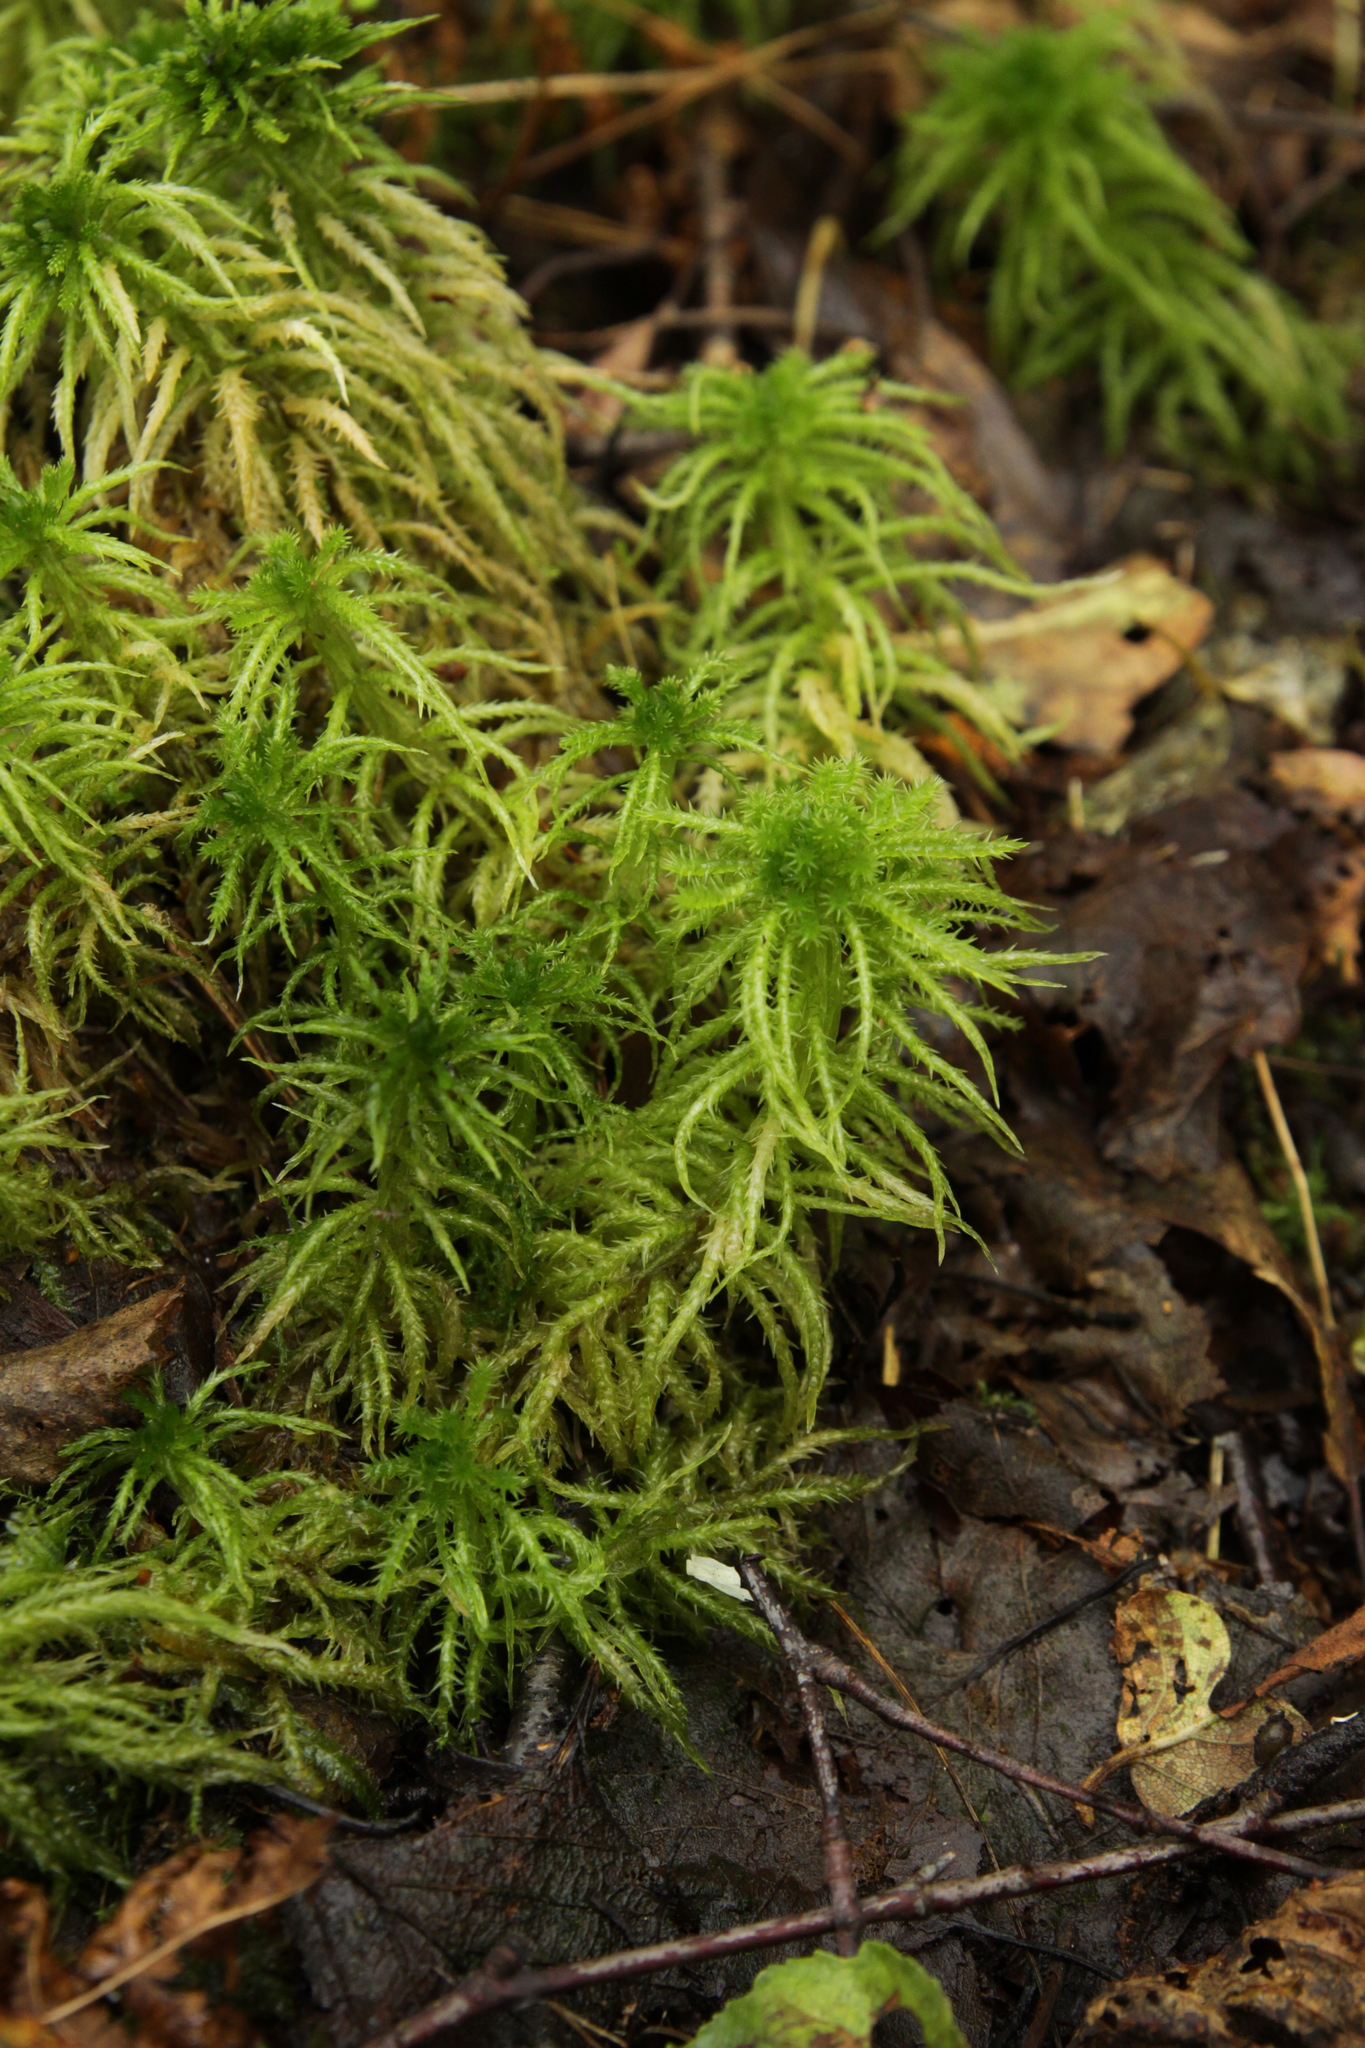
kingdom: Plantae
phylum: Bryophyta
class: Sphagnopsida
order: Sphagnales
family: Sphagnaceae
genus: Sphagnum
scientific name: Sphagnum squarrosum
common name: Shaggy peat moss
